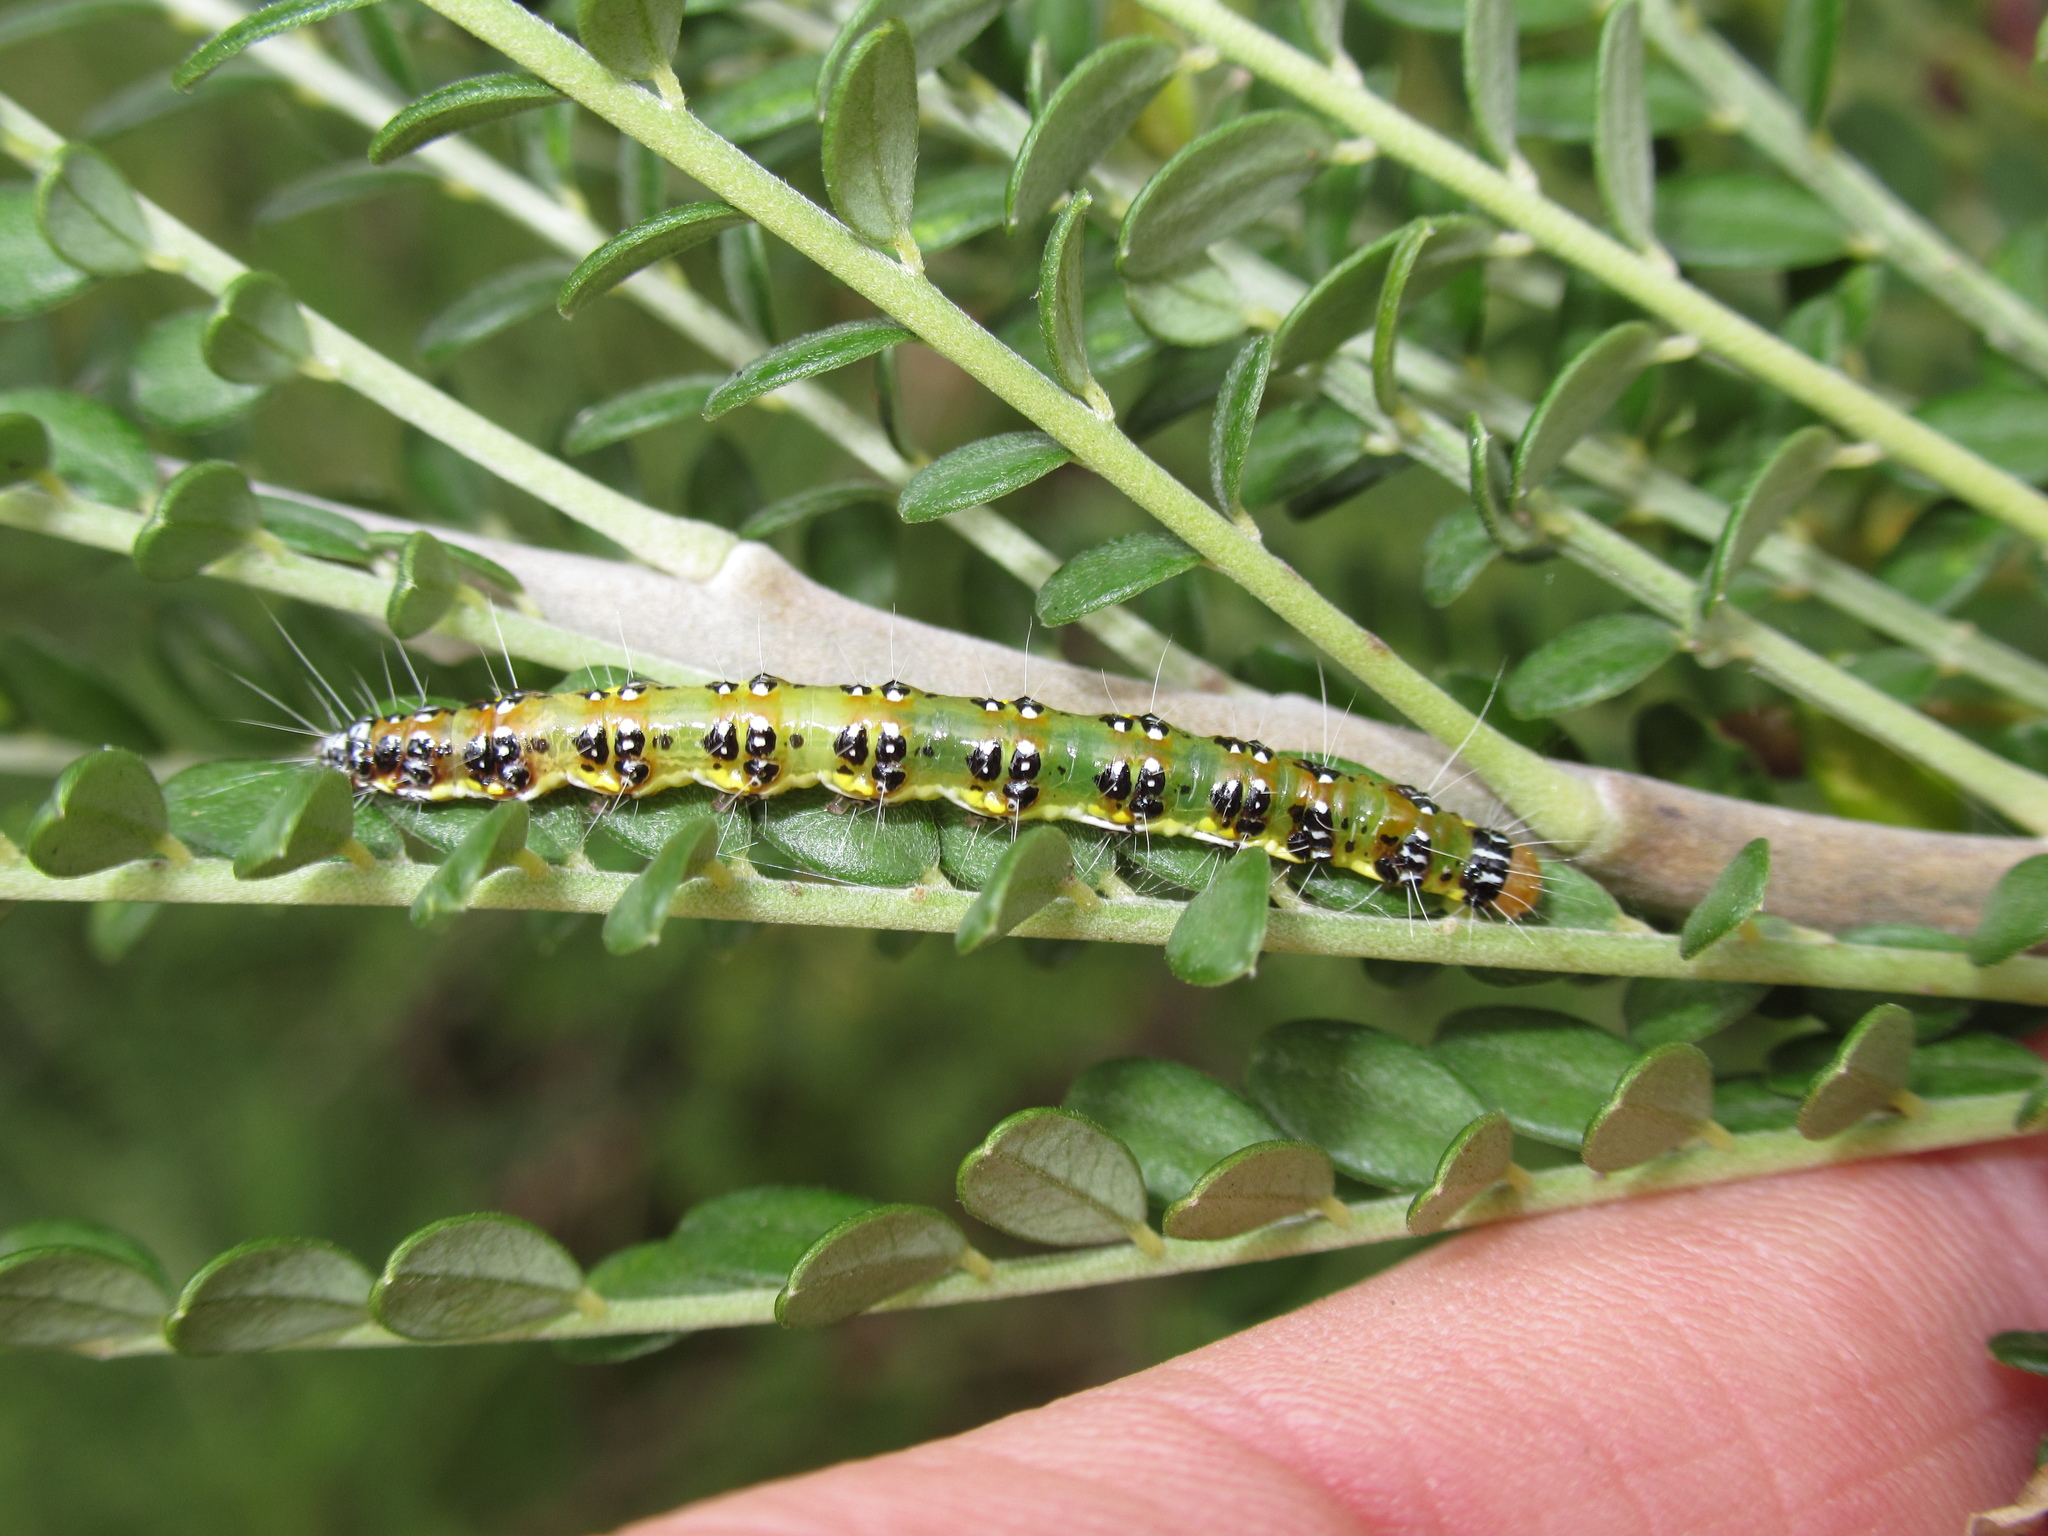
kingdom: Animalia
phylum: Arthropoda
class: Insecta
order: Lepidoptera
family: Crambidae
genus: Uresiphita
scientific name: Uresiphita
